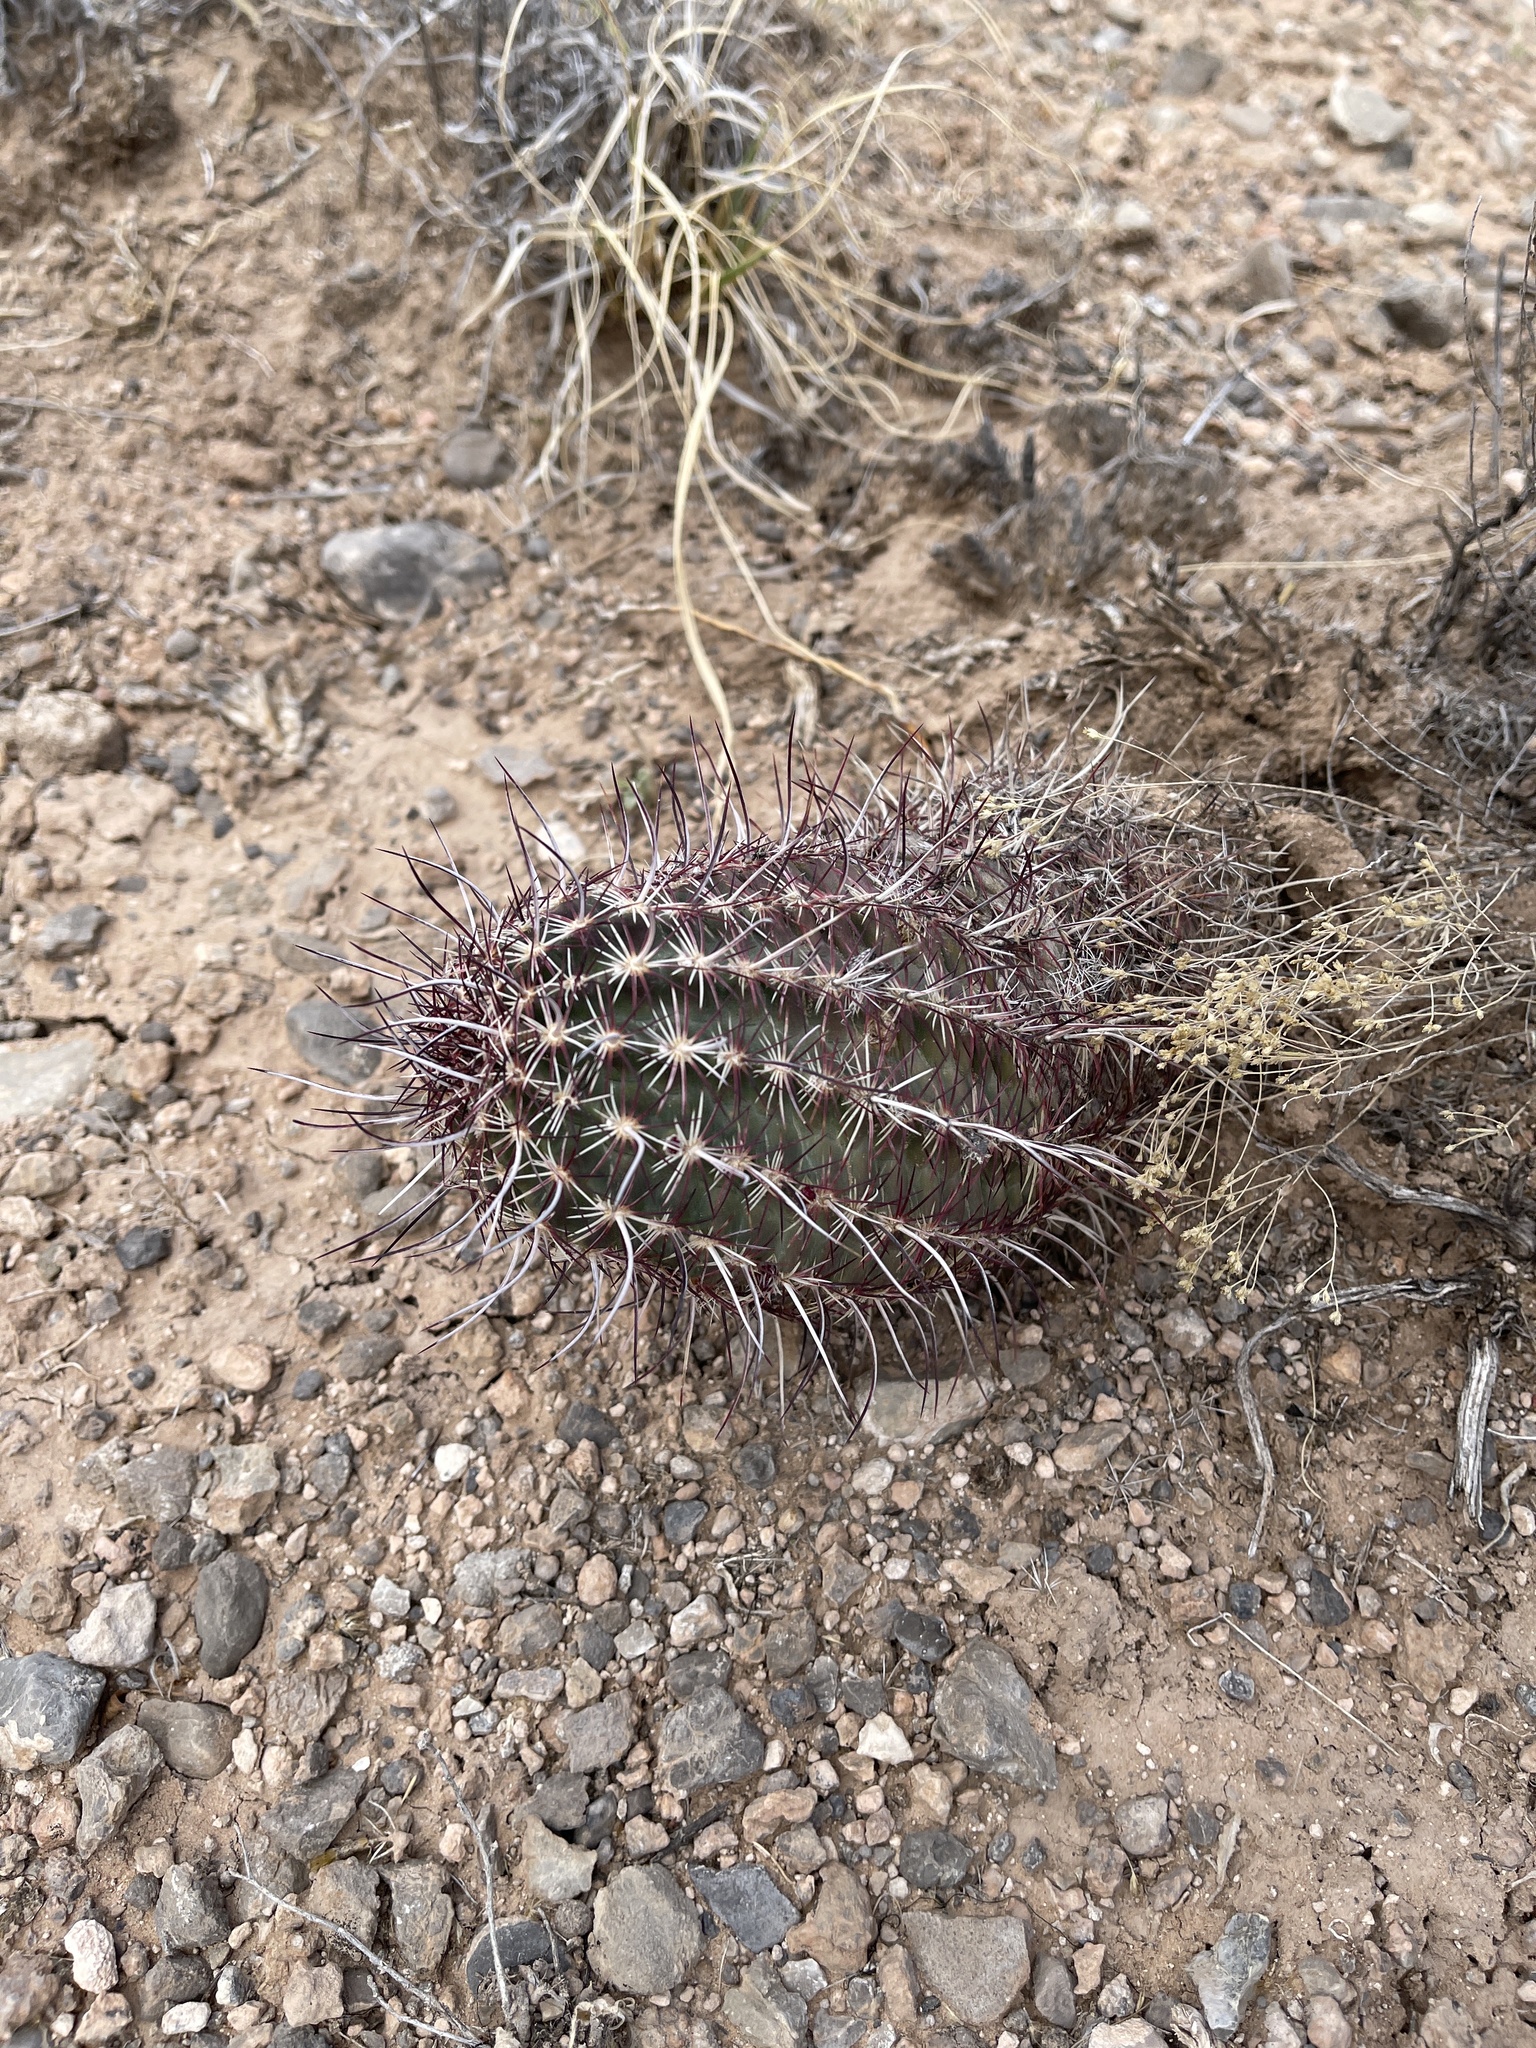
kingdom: Plantae
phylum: Tracheophyta
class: Magnoliopsida
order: Caryophyllales
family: Cactaceae
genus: Echinocereus
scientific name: Echinocereus viridiflorus
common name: Nylon hedgehog cactus
